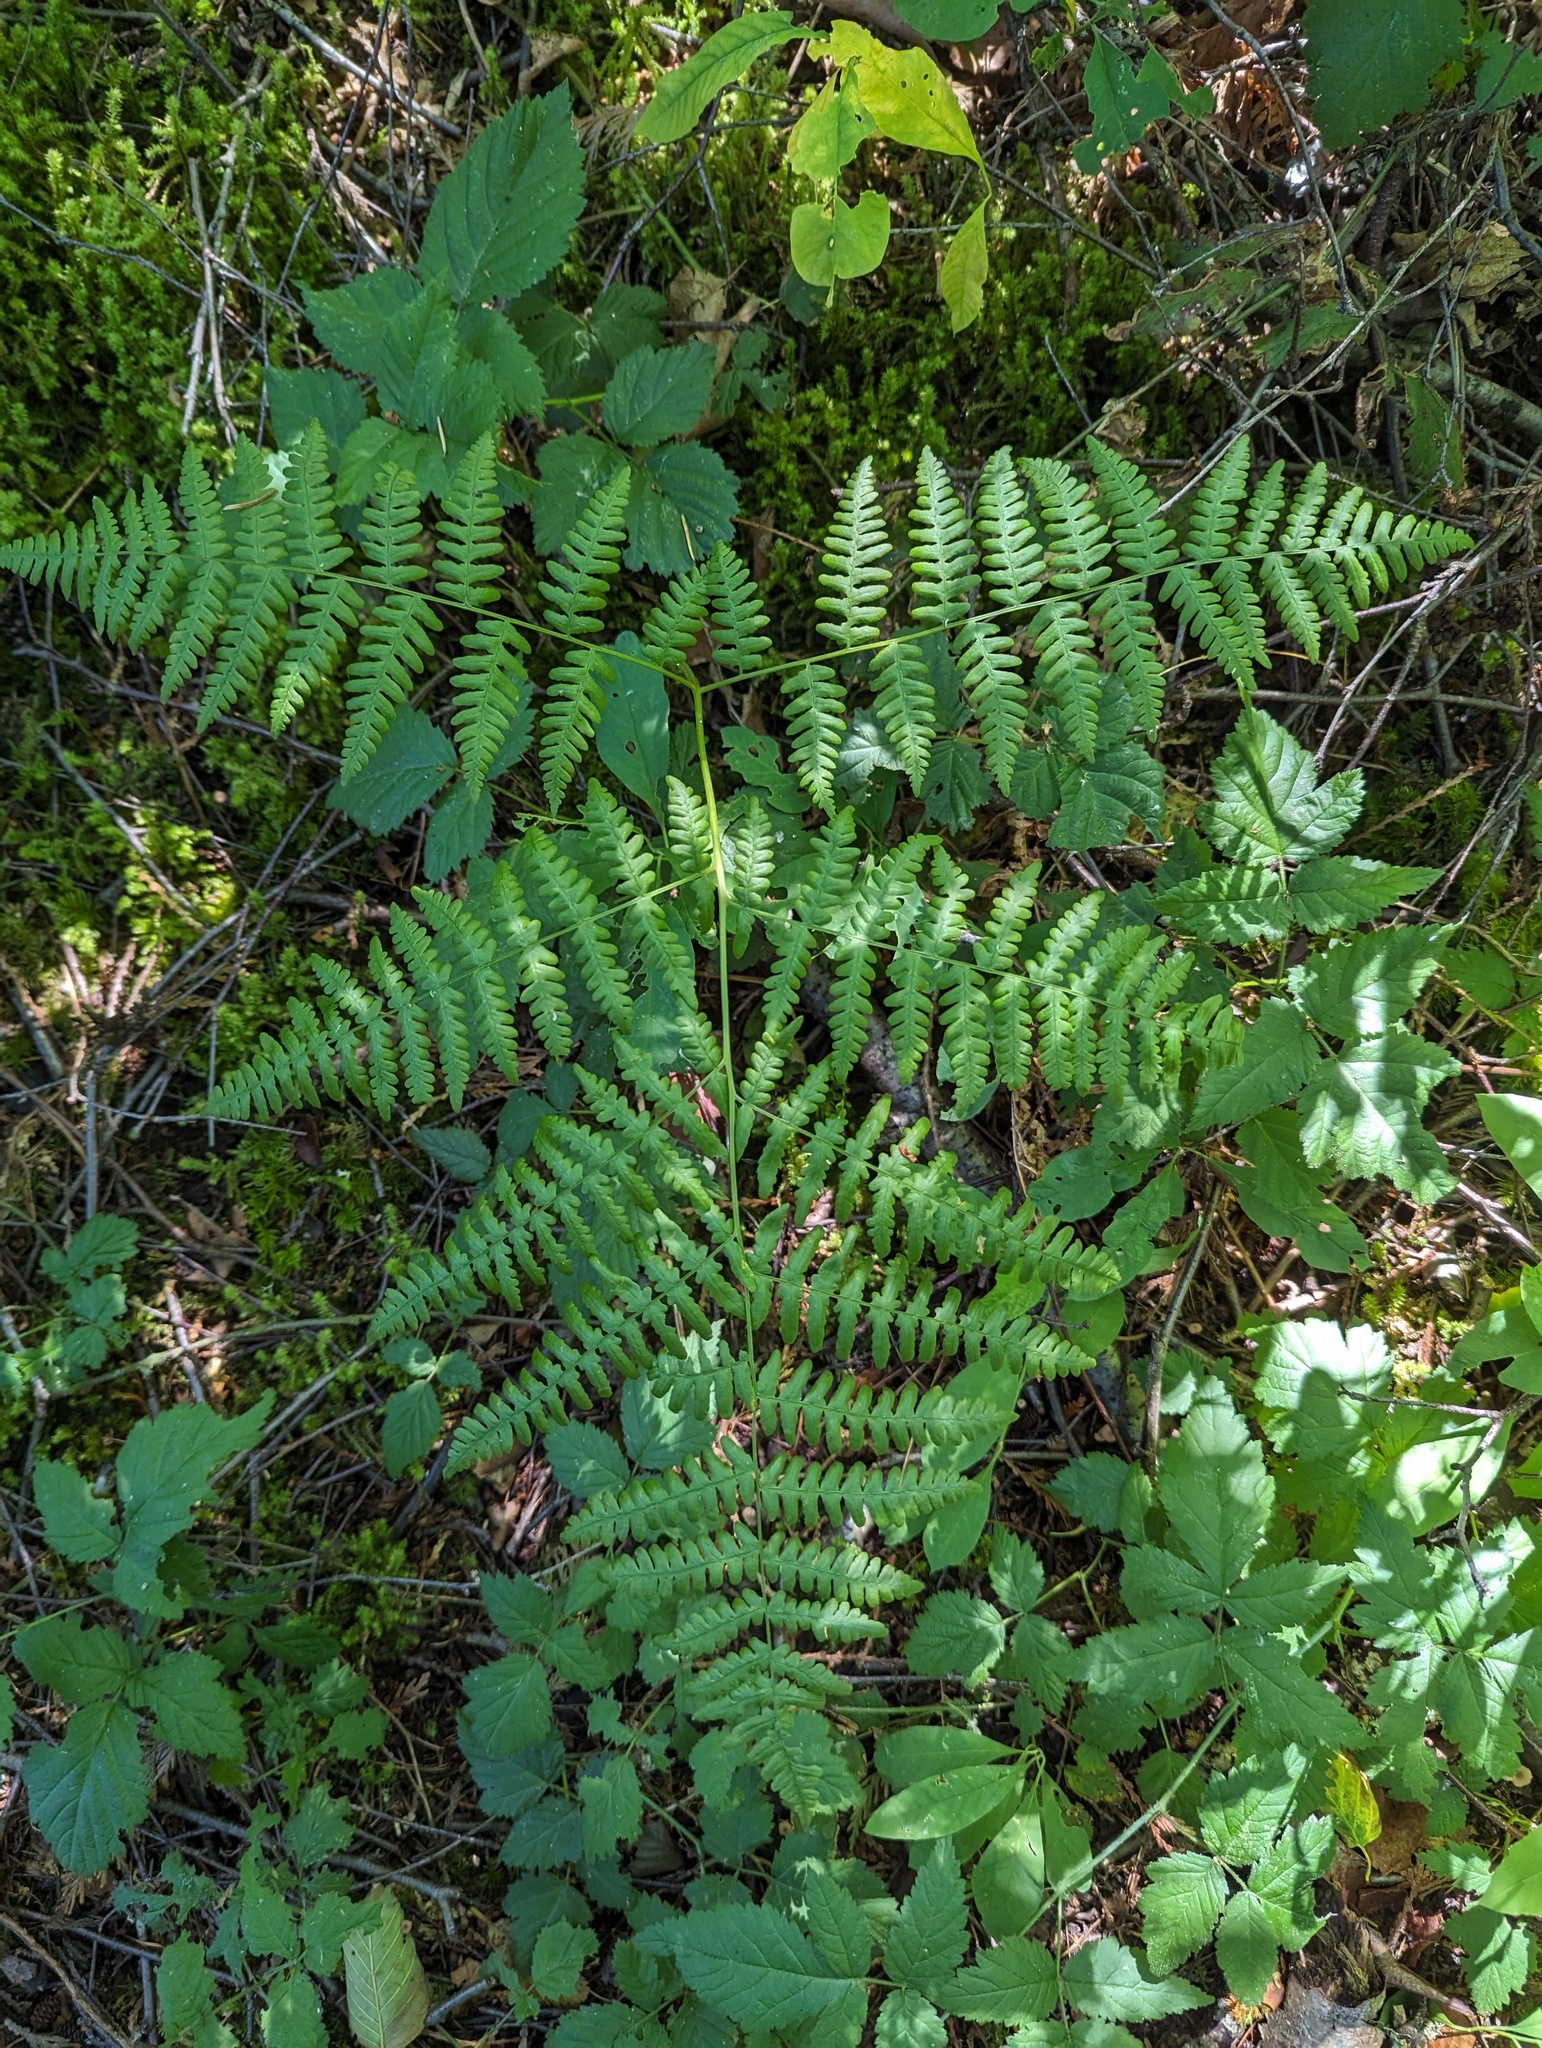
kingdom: Plantae
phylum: Tracheophyta
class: Polypodiopsida
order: Polypodiales
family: Dennstaedtiaceae
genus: Pteridium
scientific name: Pteridium aquilinum
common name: Bracken
